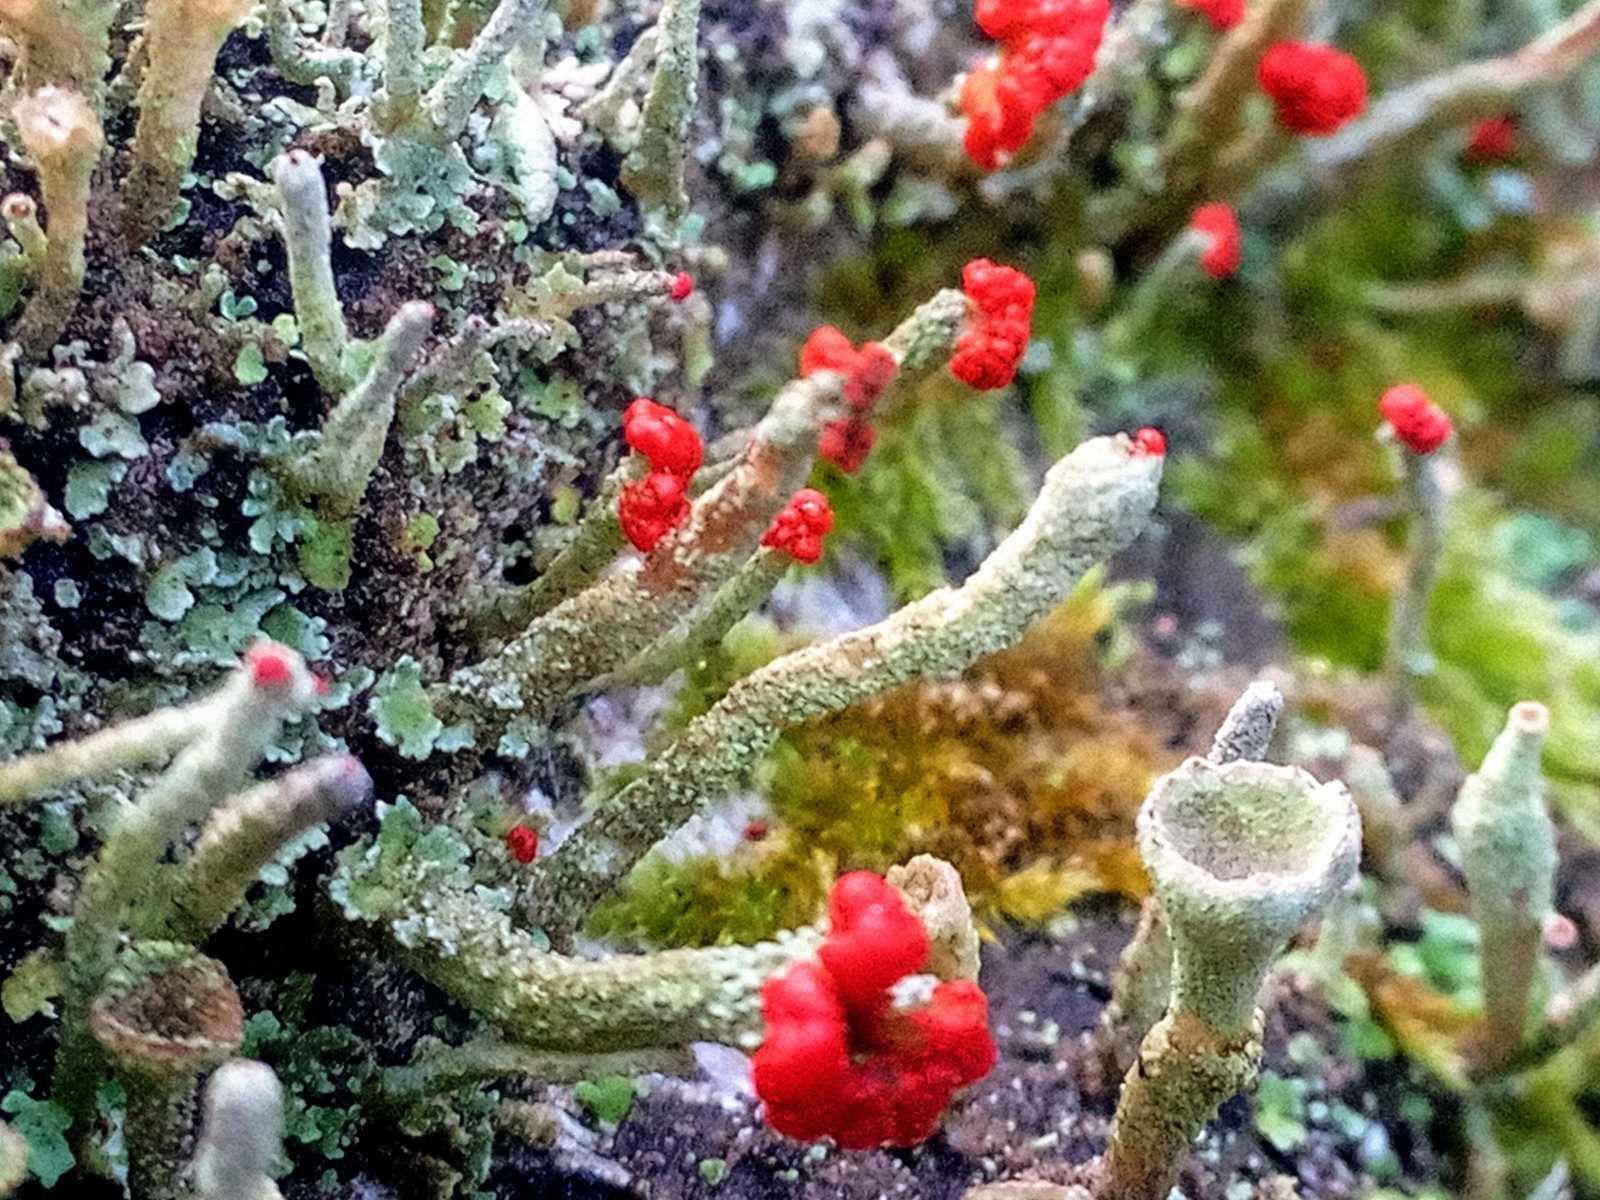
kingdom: Fungi
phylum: Ascomycota
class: Lecanoromycetes
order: Lecanorales
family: Cladoniaceae
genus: Cladonia
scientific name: Cladonia macilenta
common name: Lipstick powderhorn
